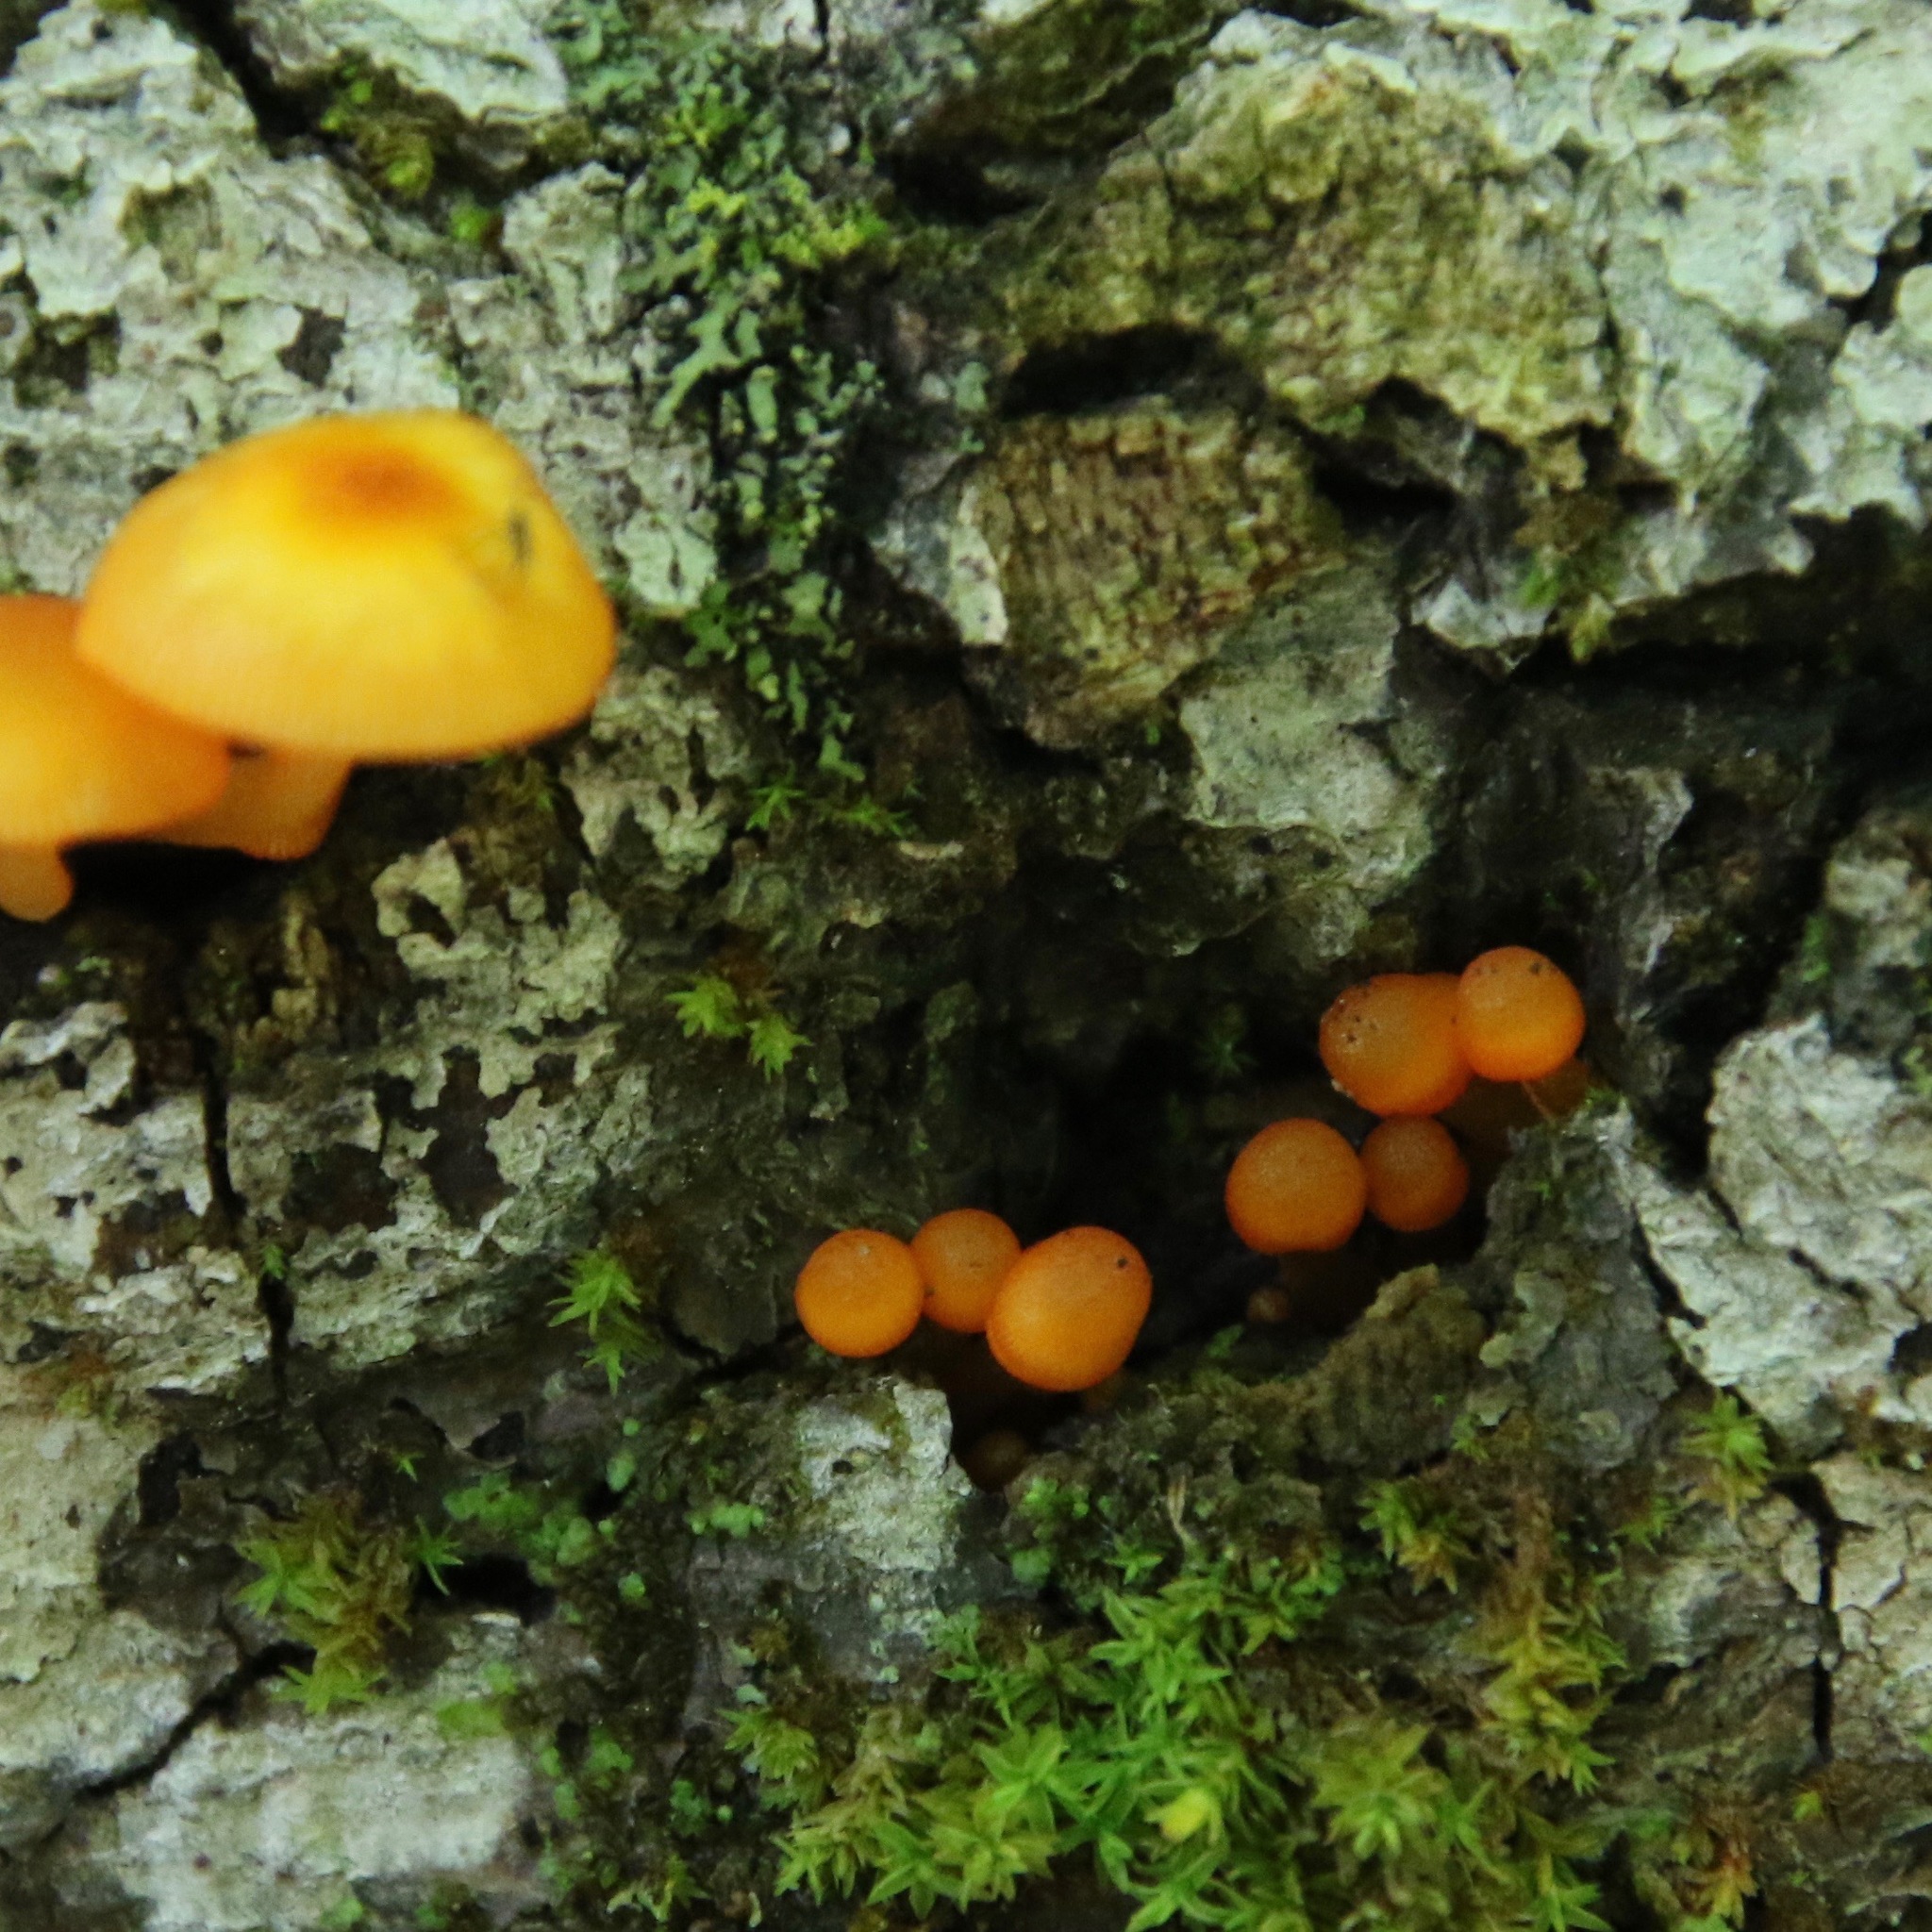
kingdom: Fungi
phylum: Basidiomycota
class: Agaricomycetes
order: Agaricales
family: Mycenaceae
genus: Mycena
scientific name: Mycena leaiana
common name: Orange mycena
